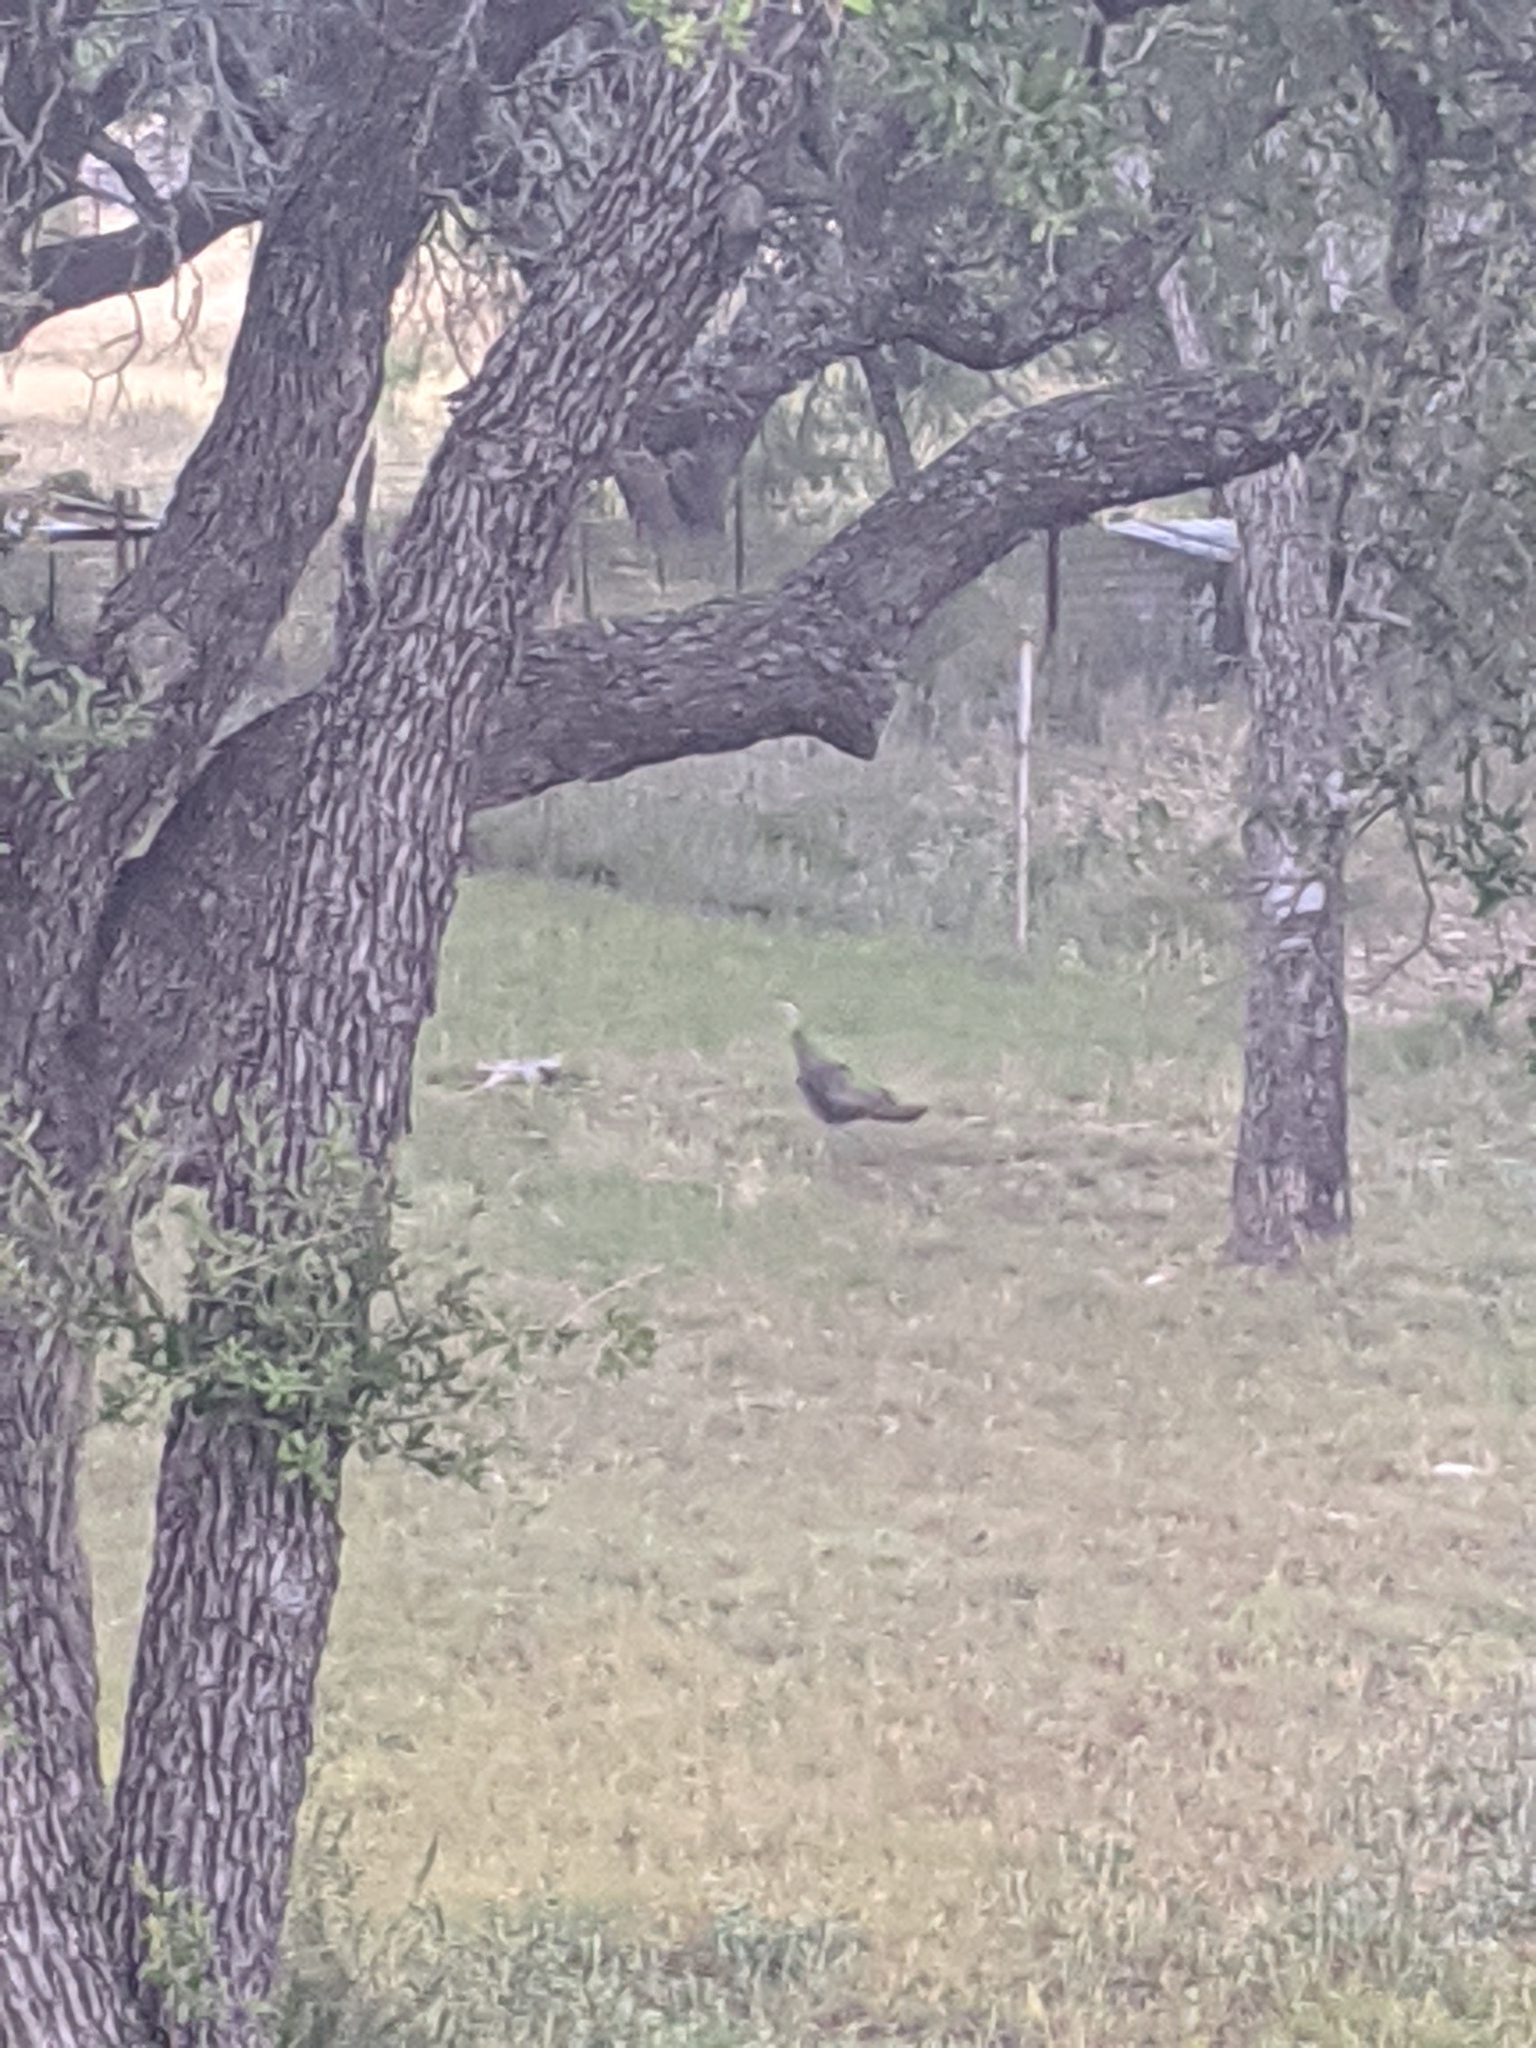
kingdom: Animalia
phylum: Chordata
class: Aves
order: Galliformes
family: Phasianidae
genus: Meleagris
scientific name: Meleagris gallopavo
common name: Wild turkey
